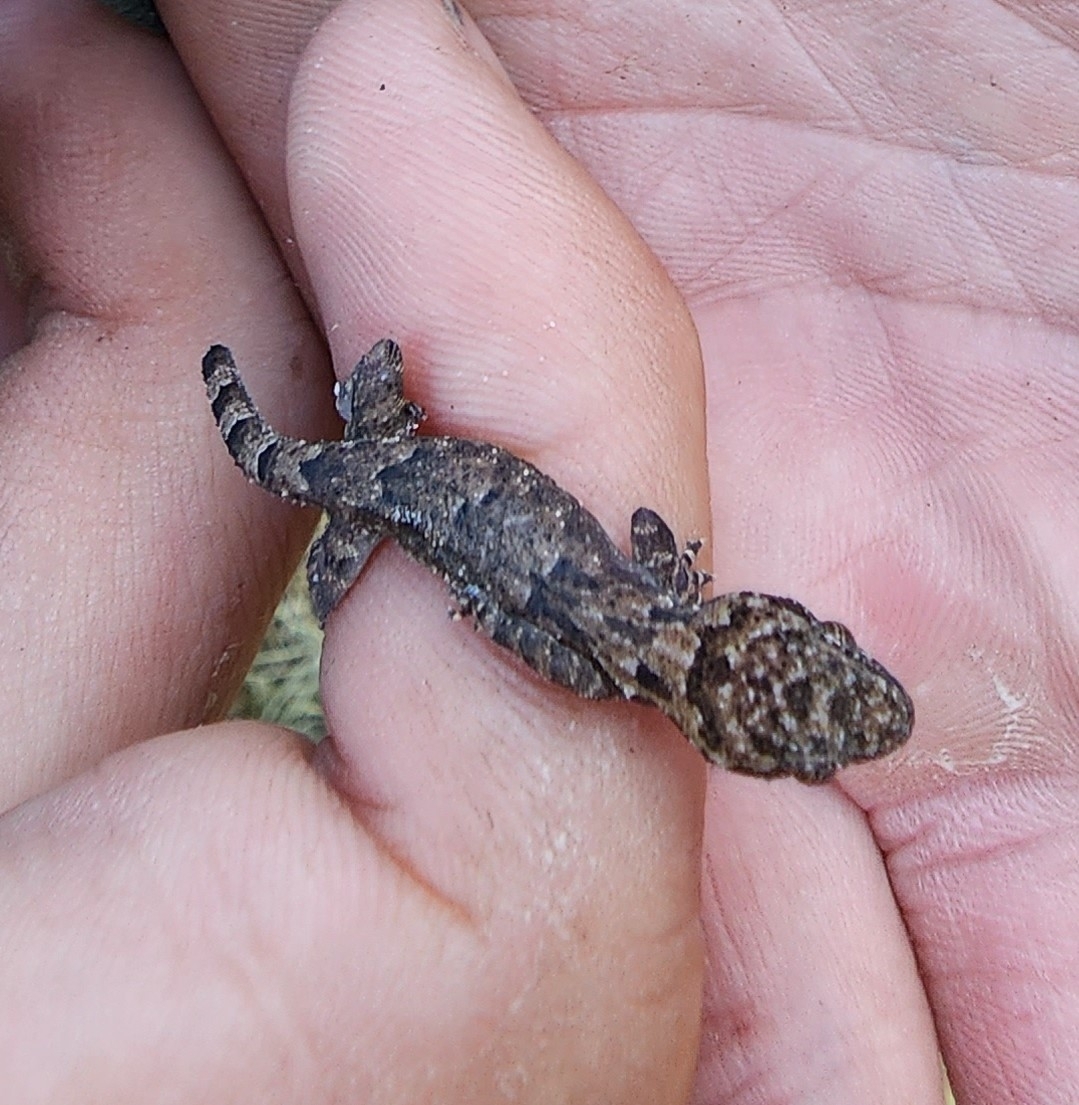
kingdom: Animalia
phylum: Chordata
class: Squamata
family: Gekkonidae
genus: Hemidactylus
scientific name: Hemidactylus mabouia
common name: House gecko
